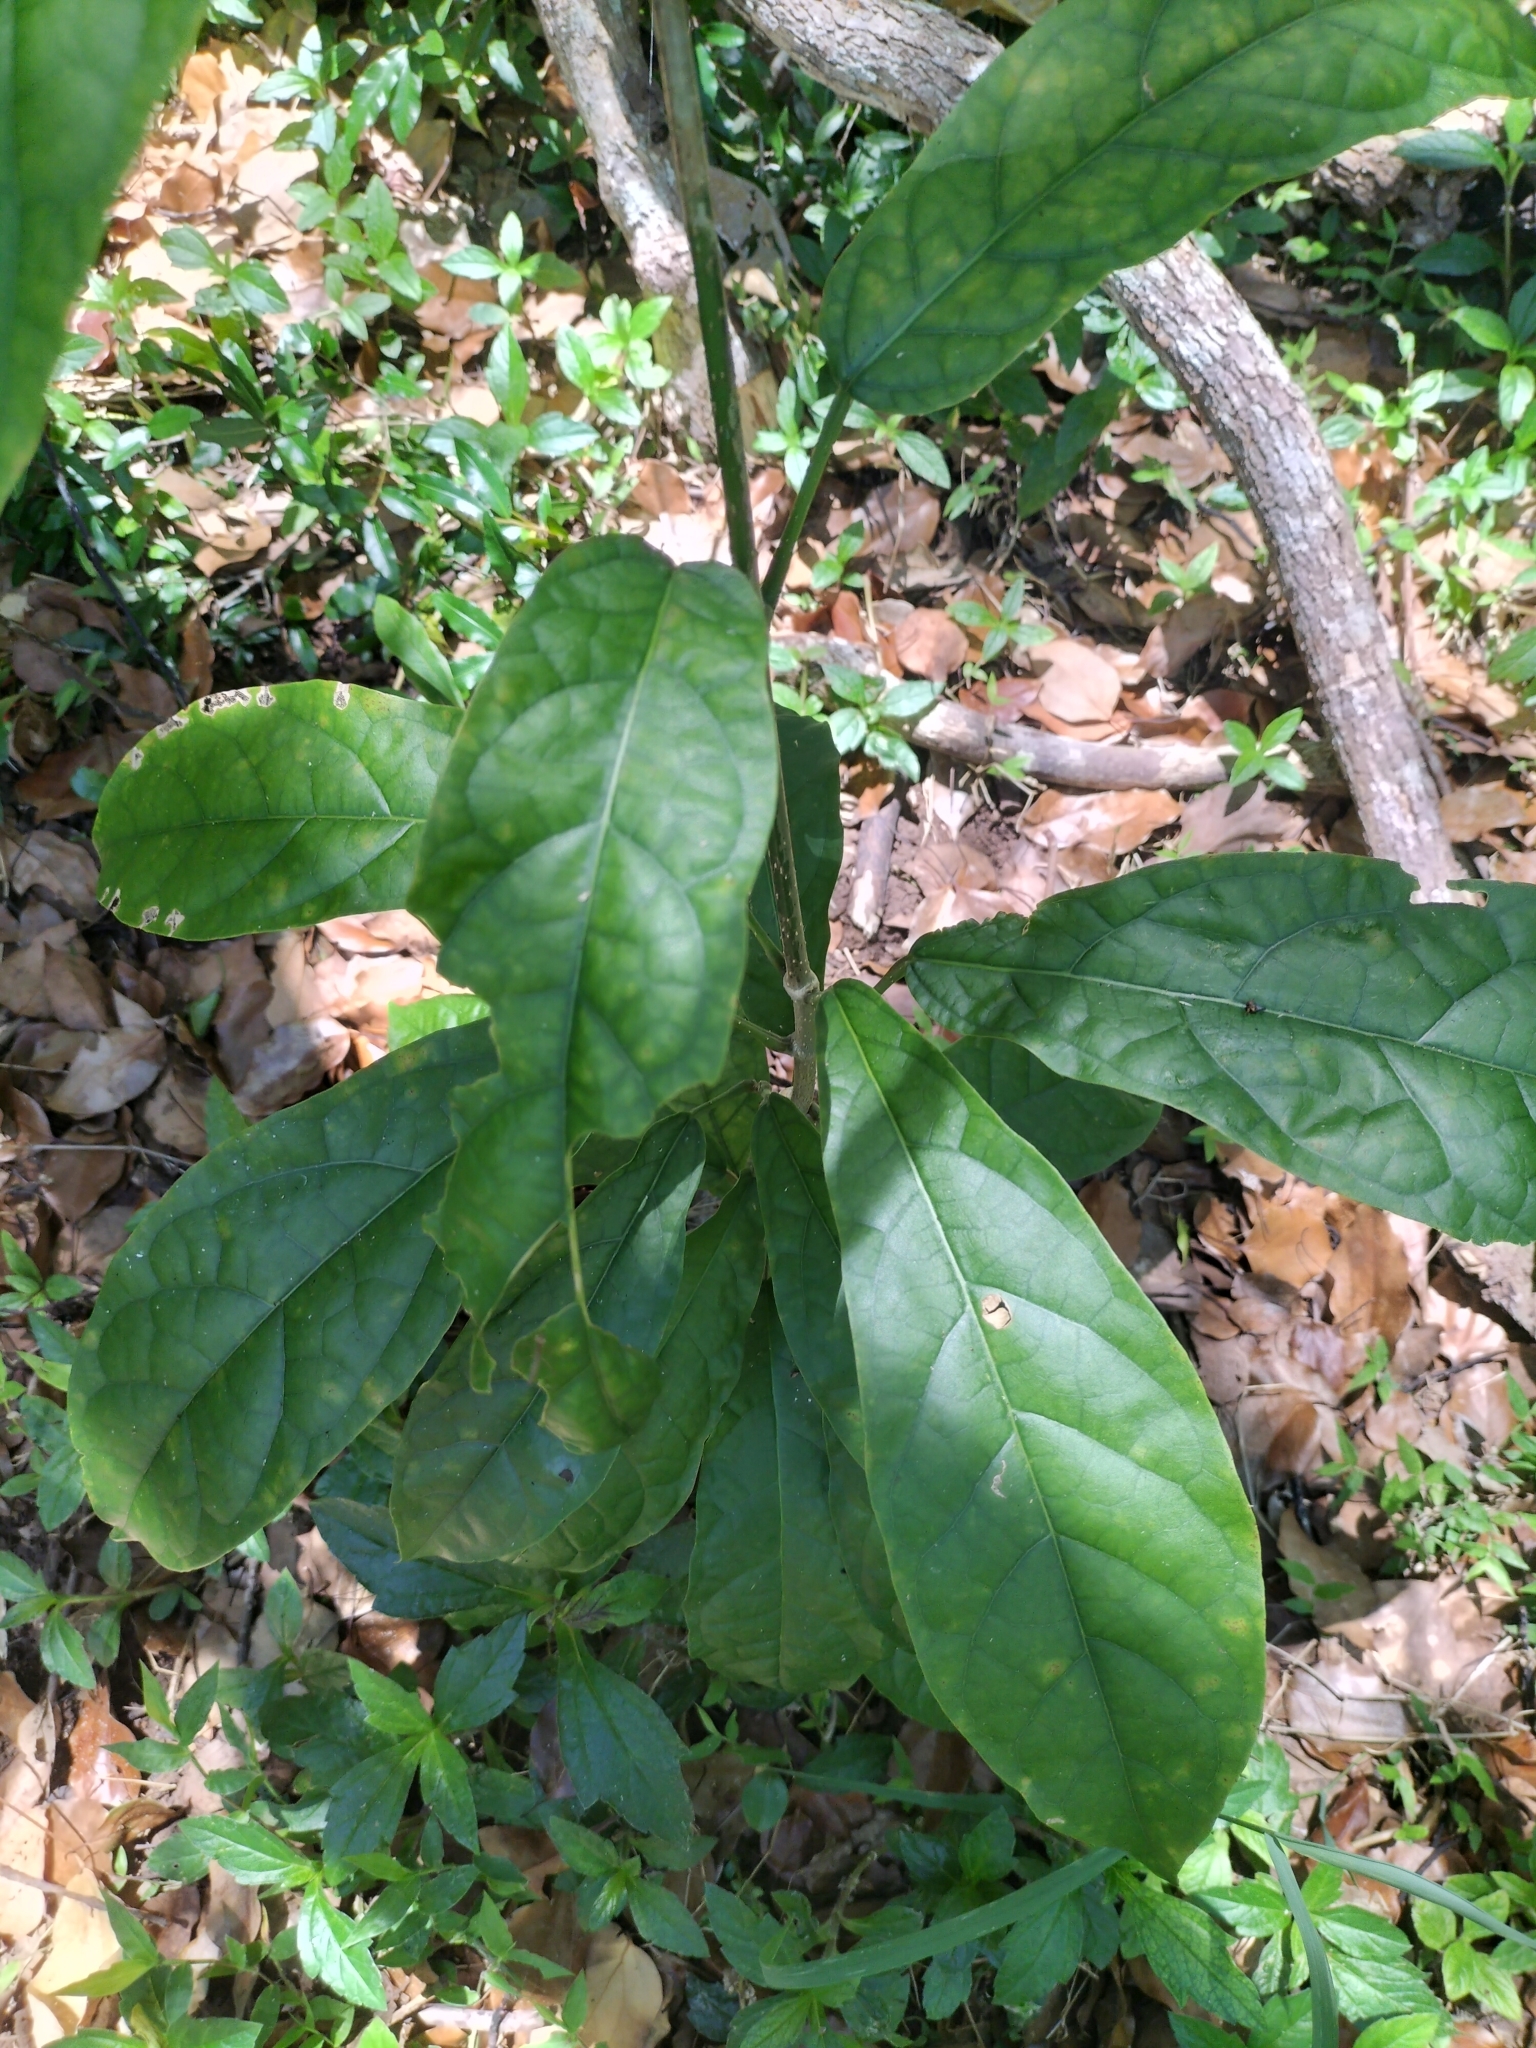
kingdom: Plantae
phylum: Tracheophyta
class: Magnoliopsida
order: Lamiales
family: Lamiaceae
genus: Oxera
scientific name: Oxera splendida
